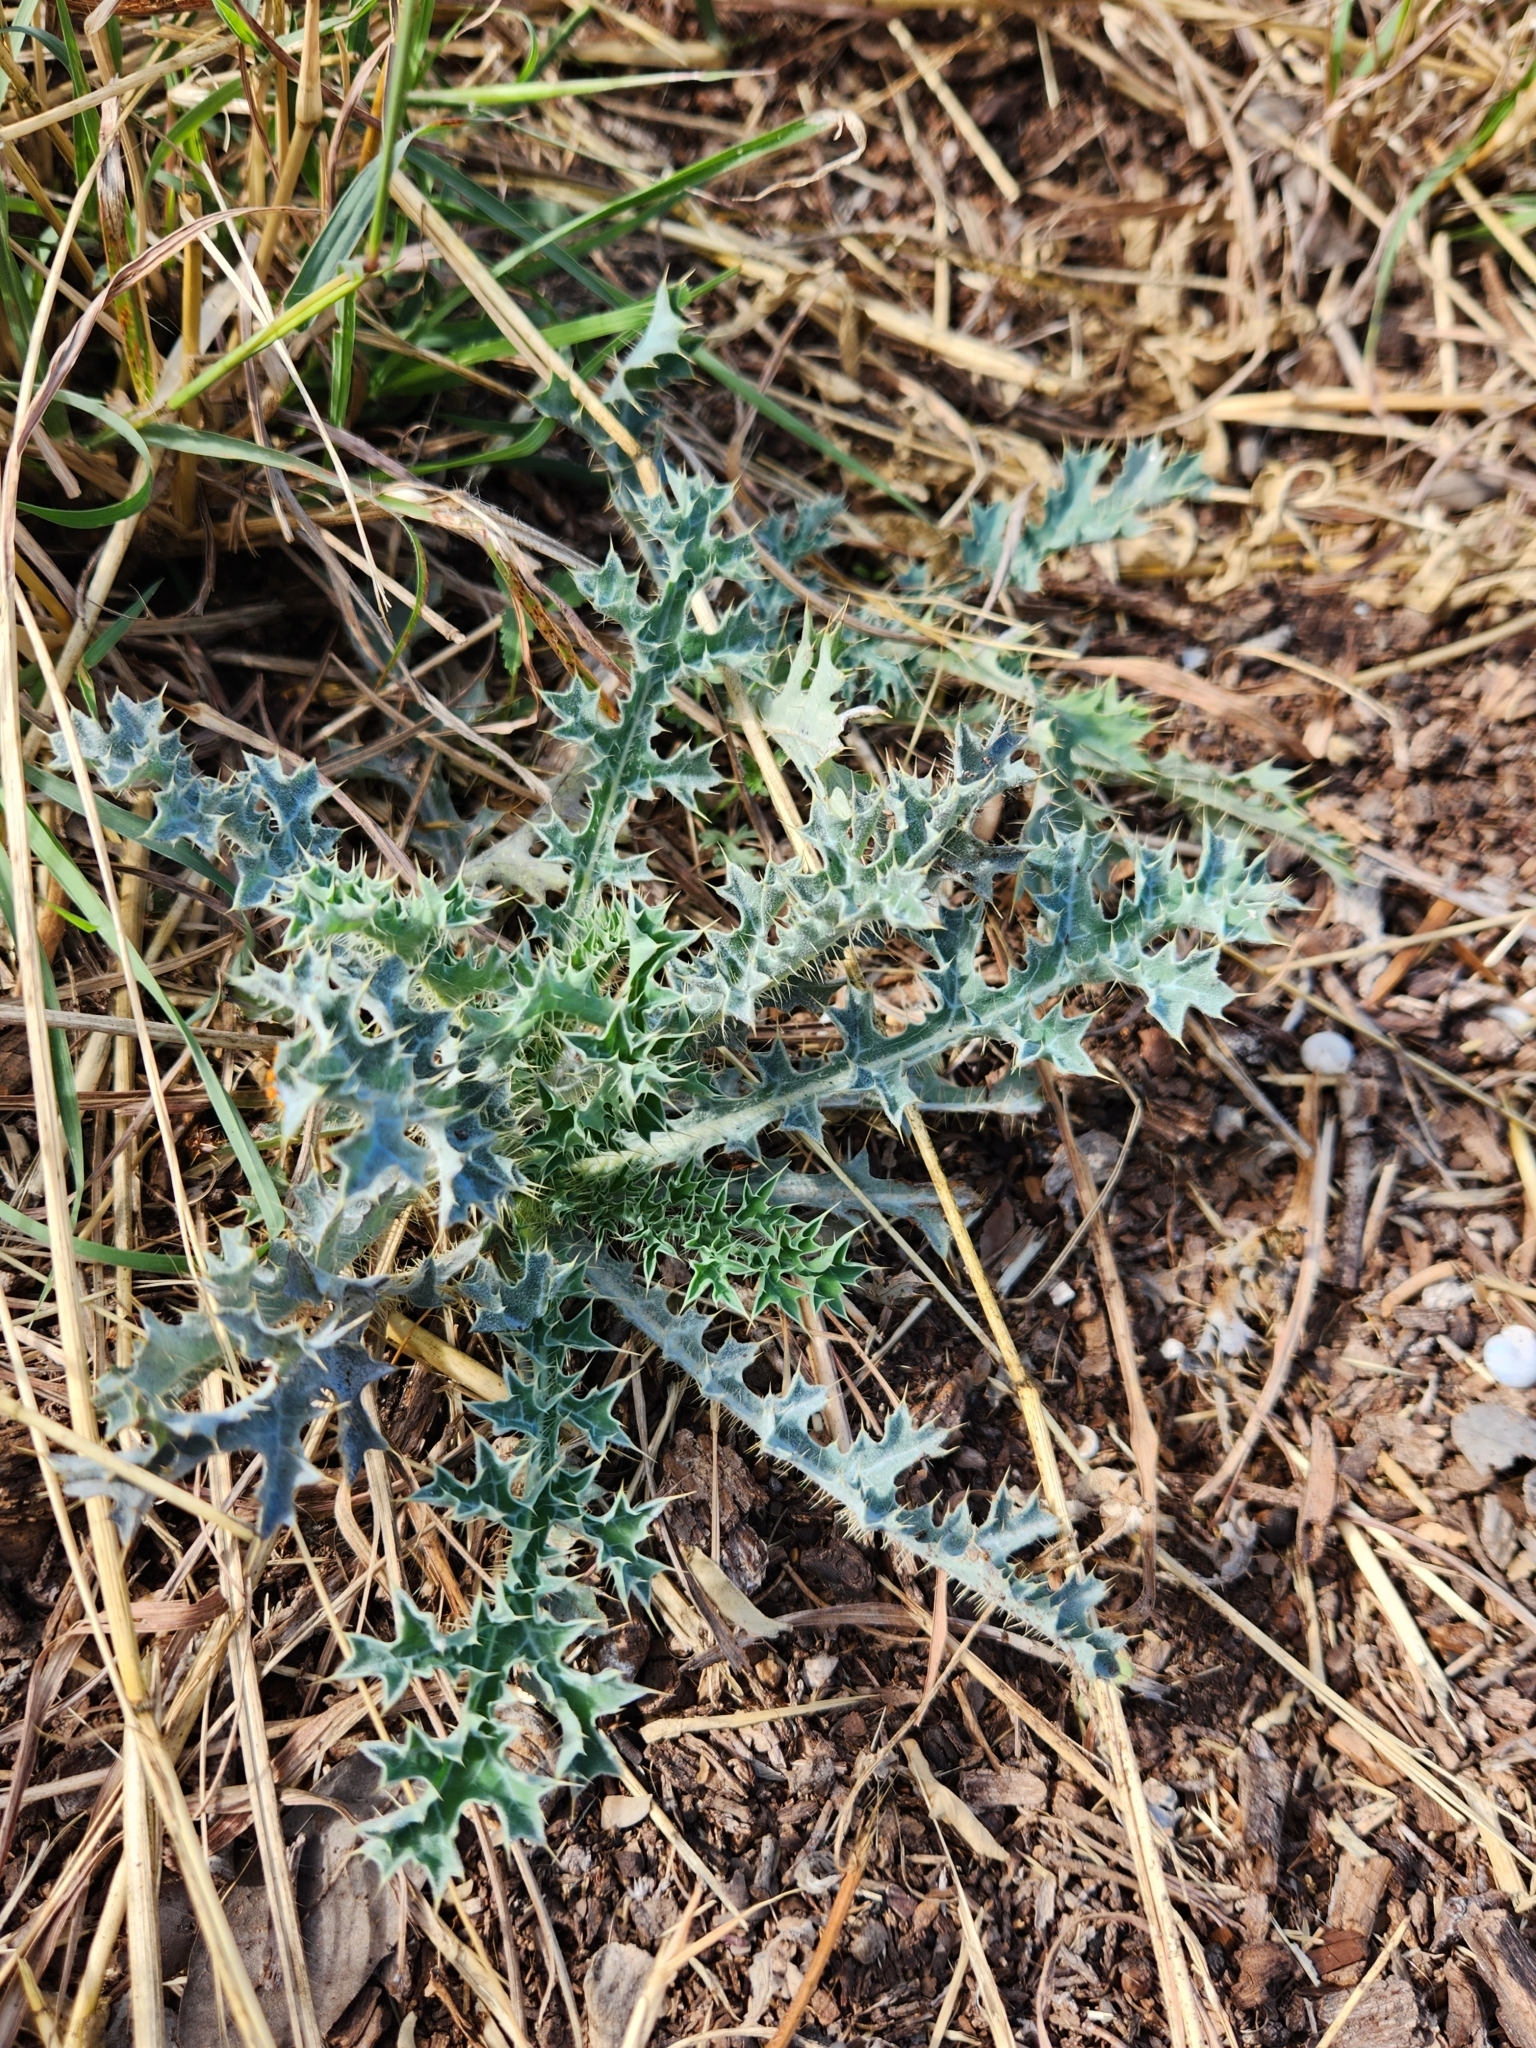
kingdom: Plantae
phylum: Tracheophyta
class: Magnoliopsida
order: Ranunculales
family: Papaveraceae
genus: Argemone
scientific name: Argemone aurantiaca
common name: Texas prickly-poppy
